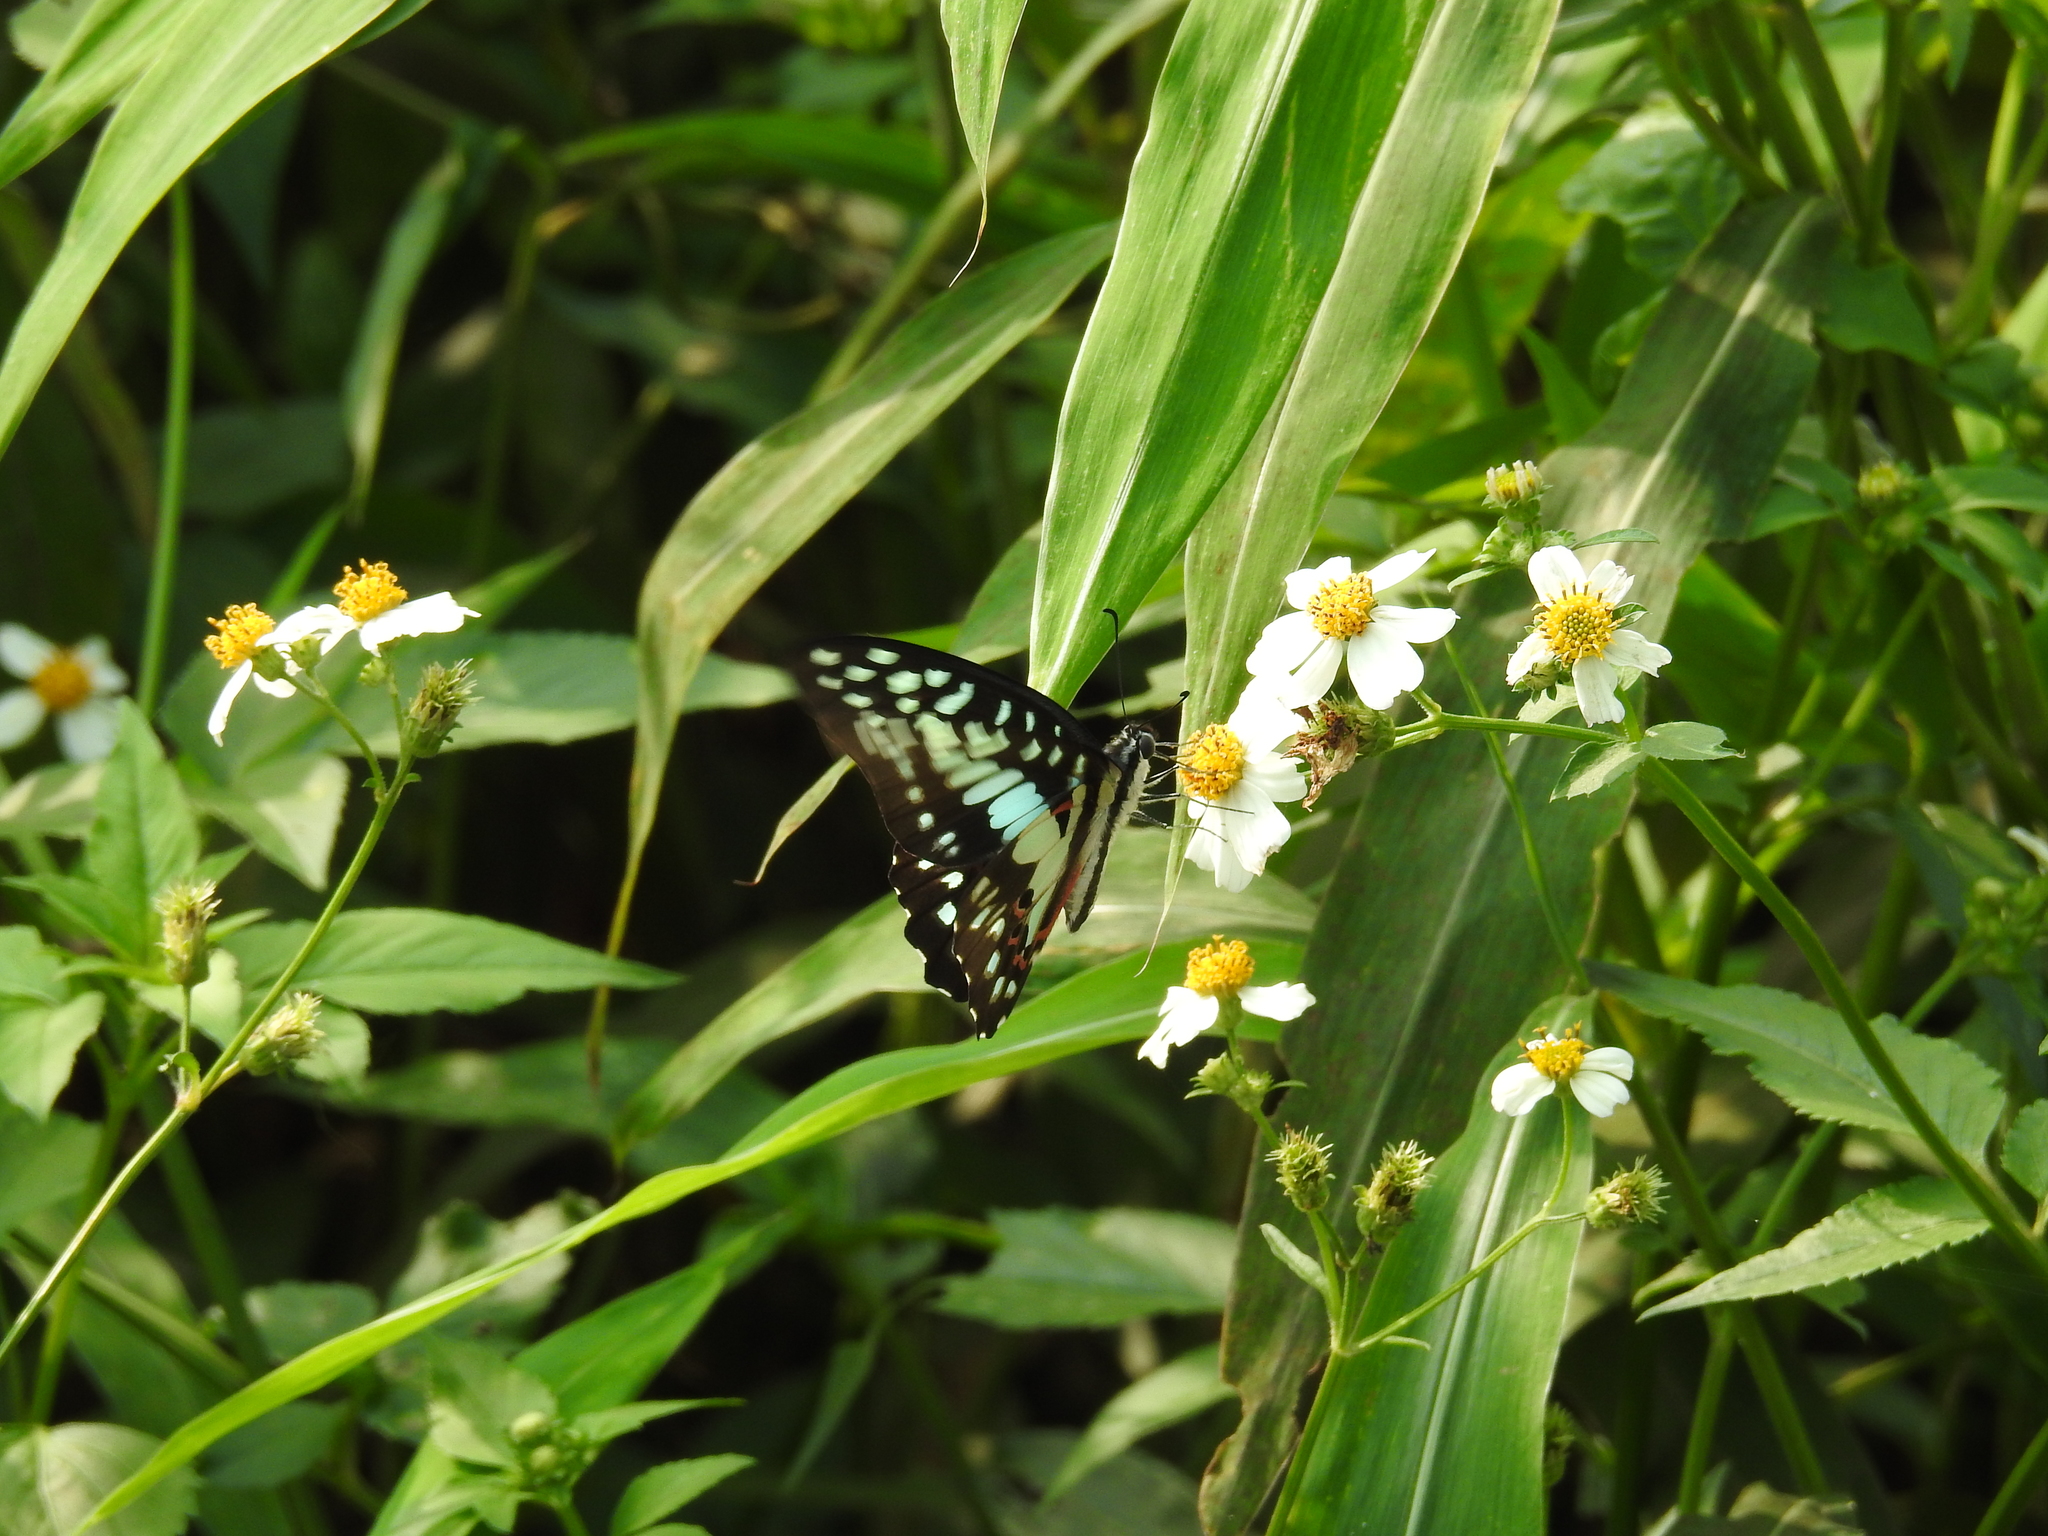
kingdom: Animalia
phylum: Arthropoda
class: Insecta
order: Lepidoptera
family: Papilionidae
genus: Graphium
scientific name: Graphium doson
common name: Common jay
